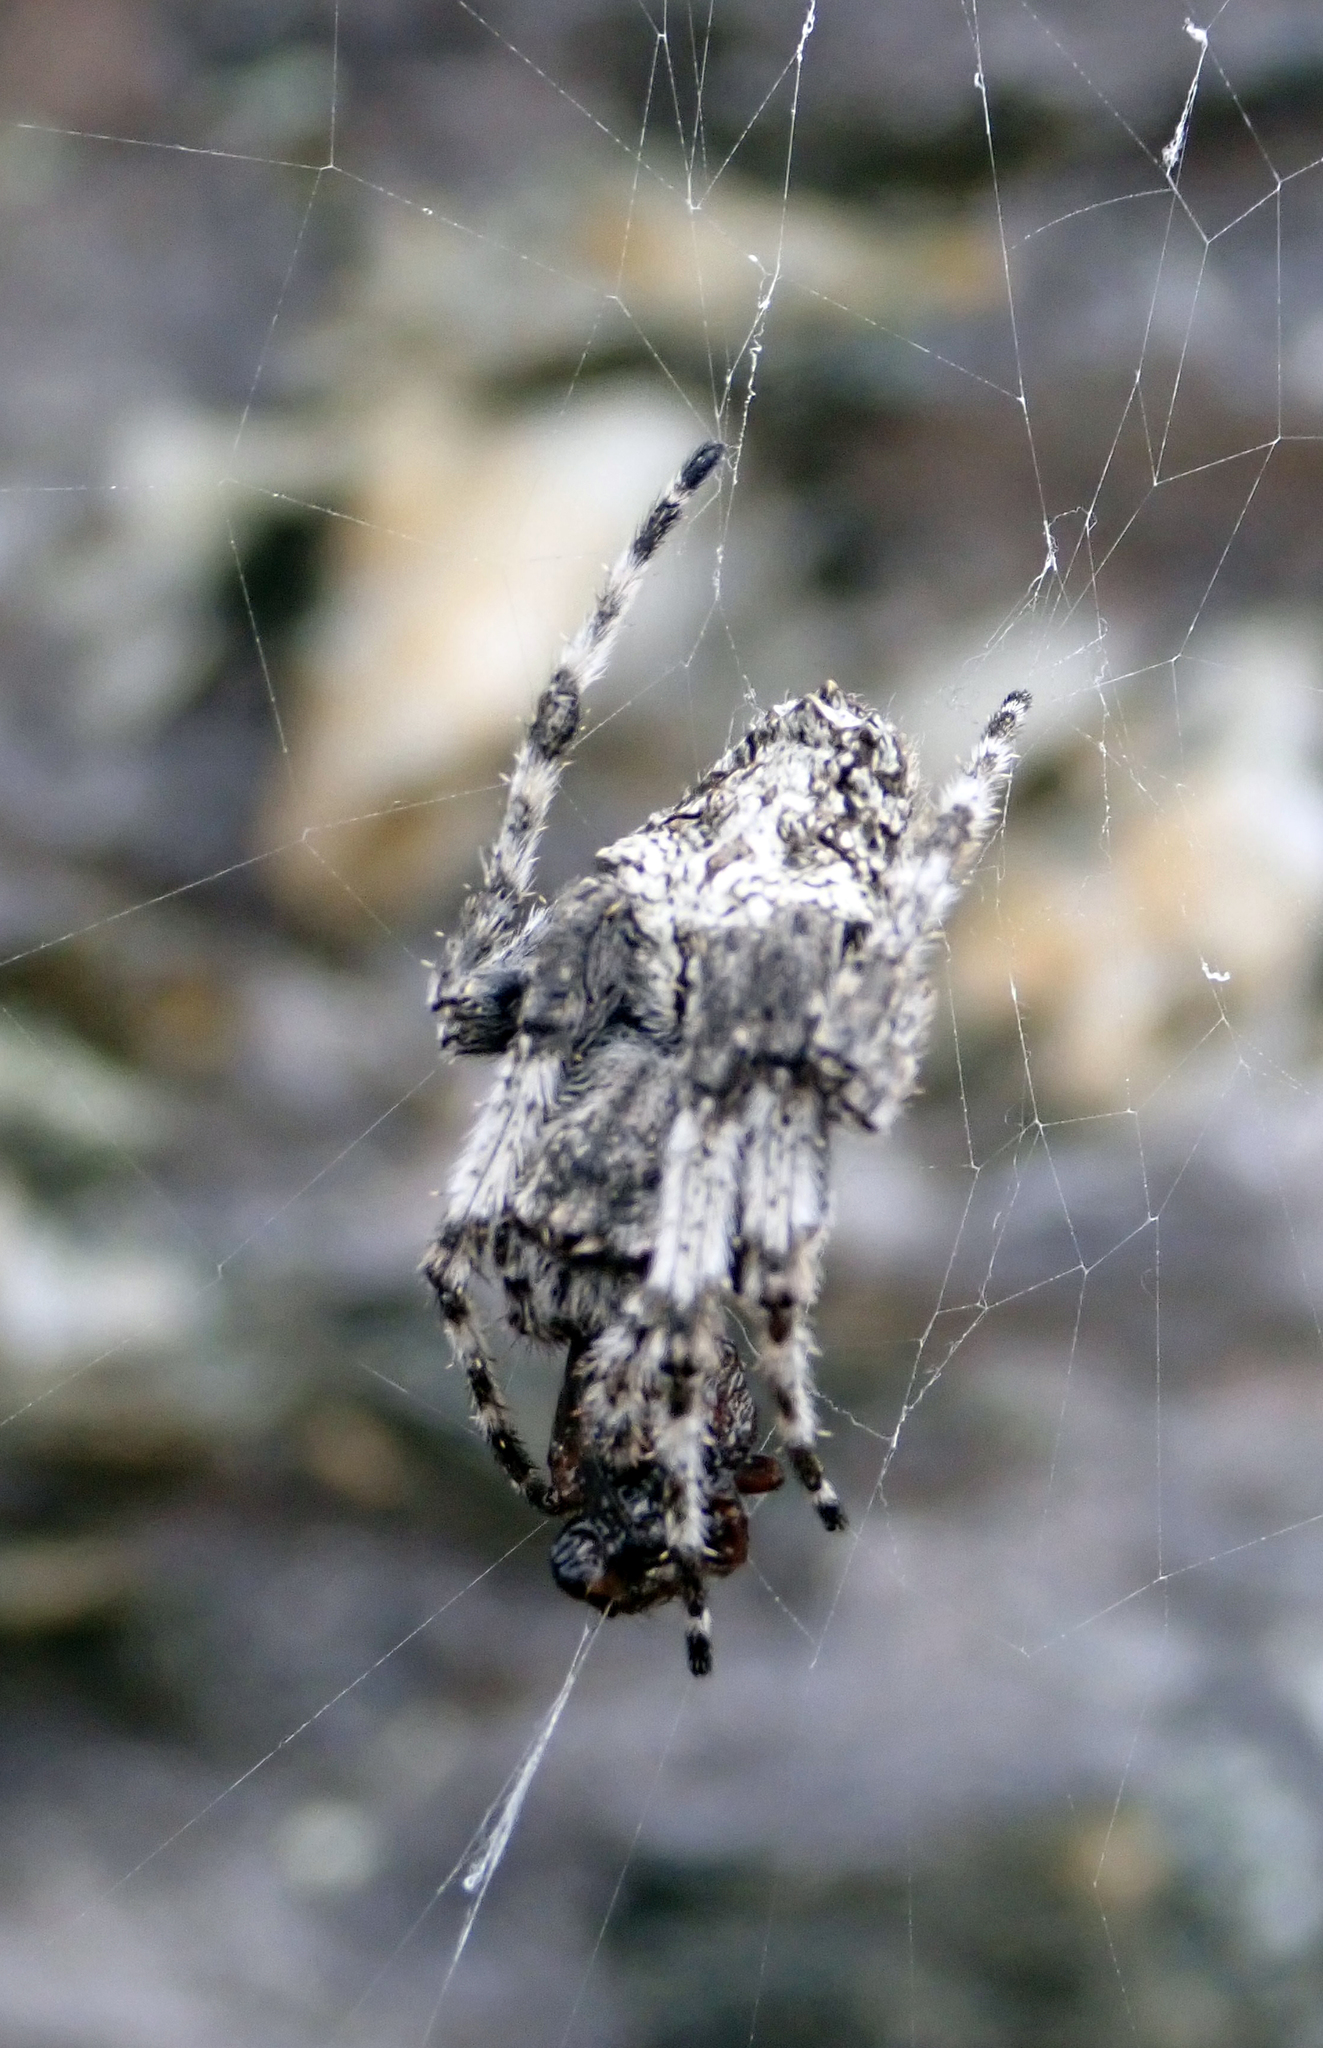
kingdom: Animalia
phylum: Arthropoda
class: Arachnida
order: Araneae
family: Araneidae
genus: Eriophora
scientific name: Eriophora pustulosa
